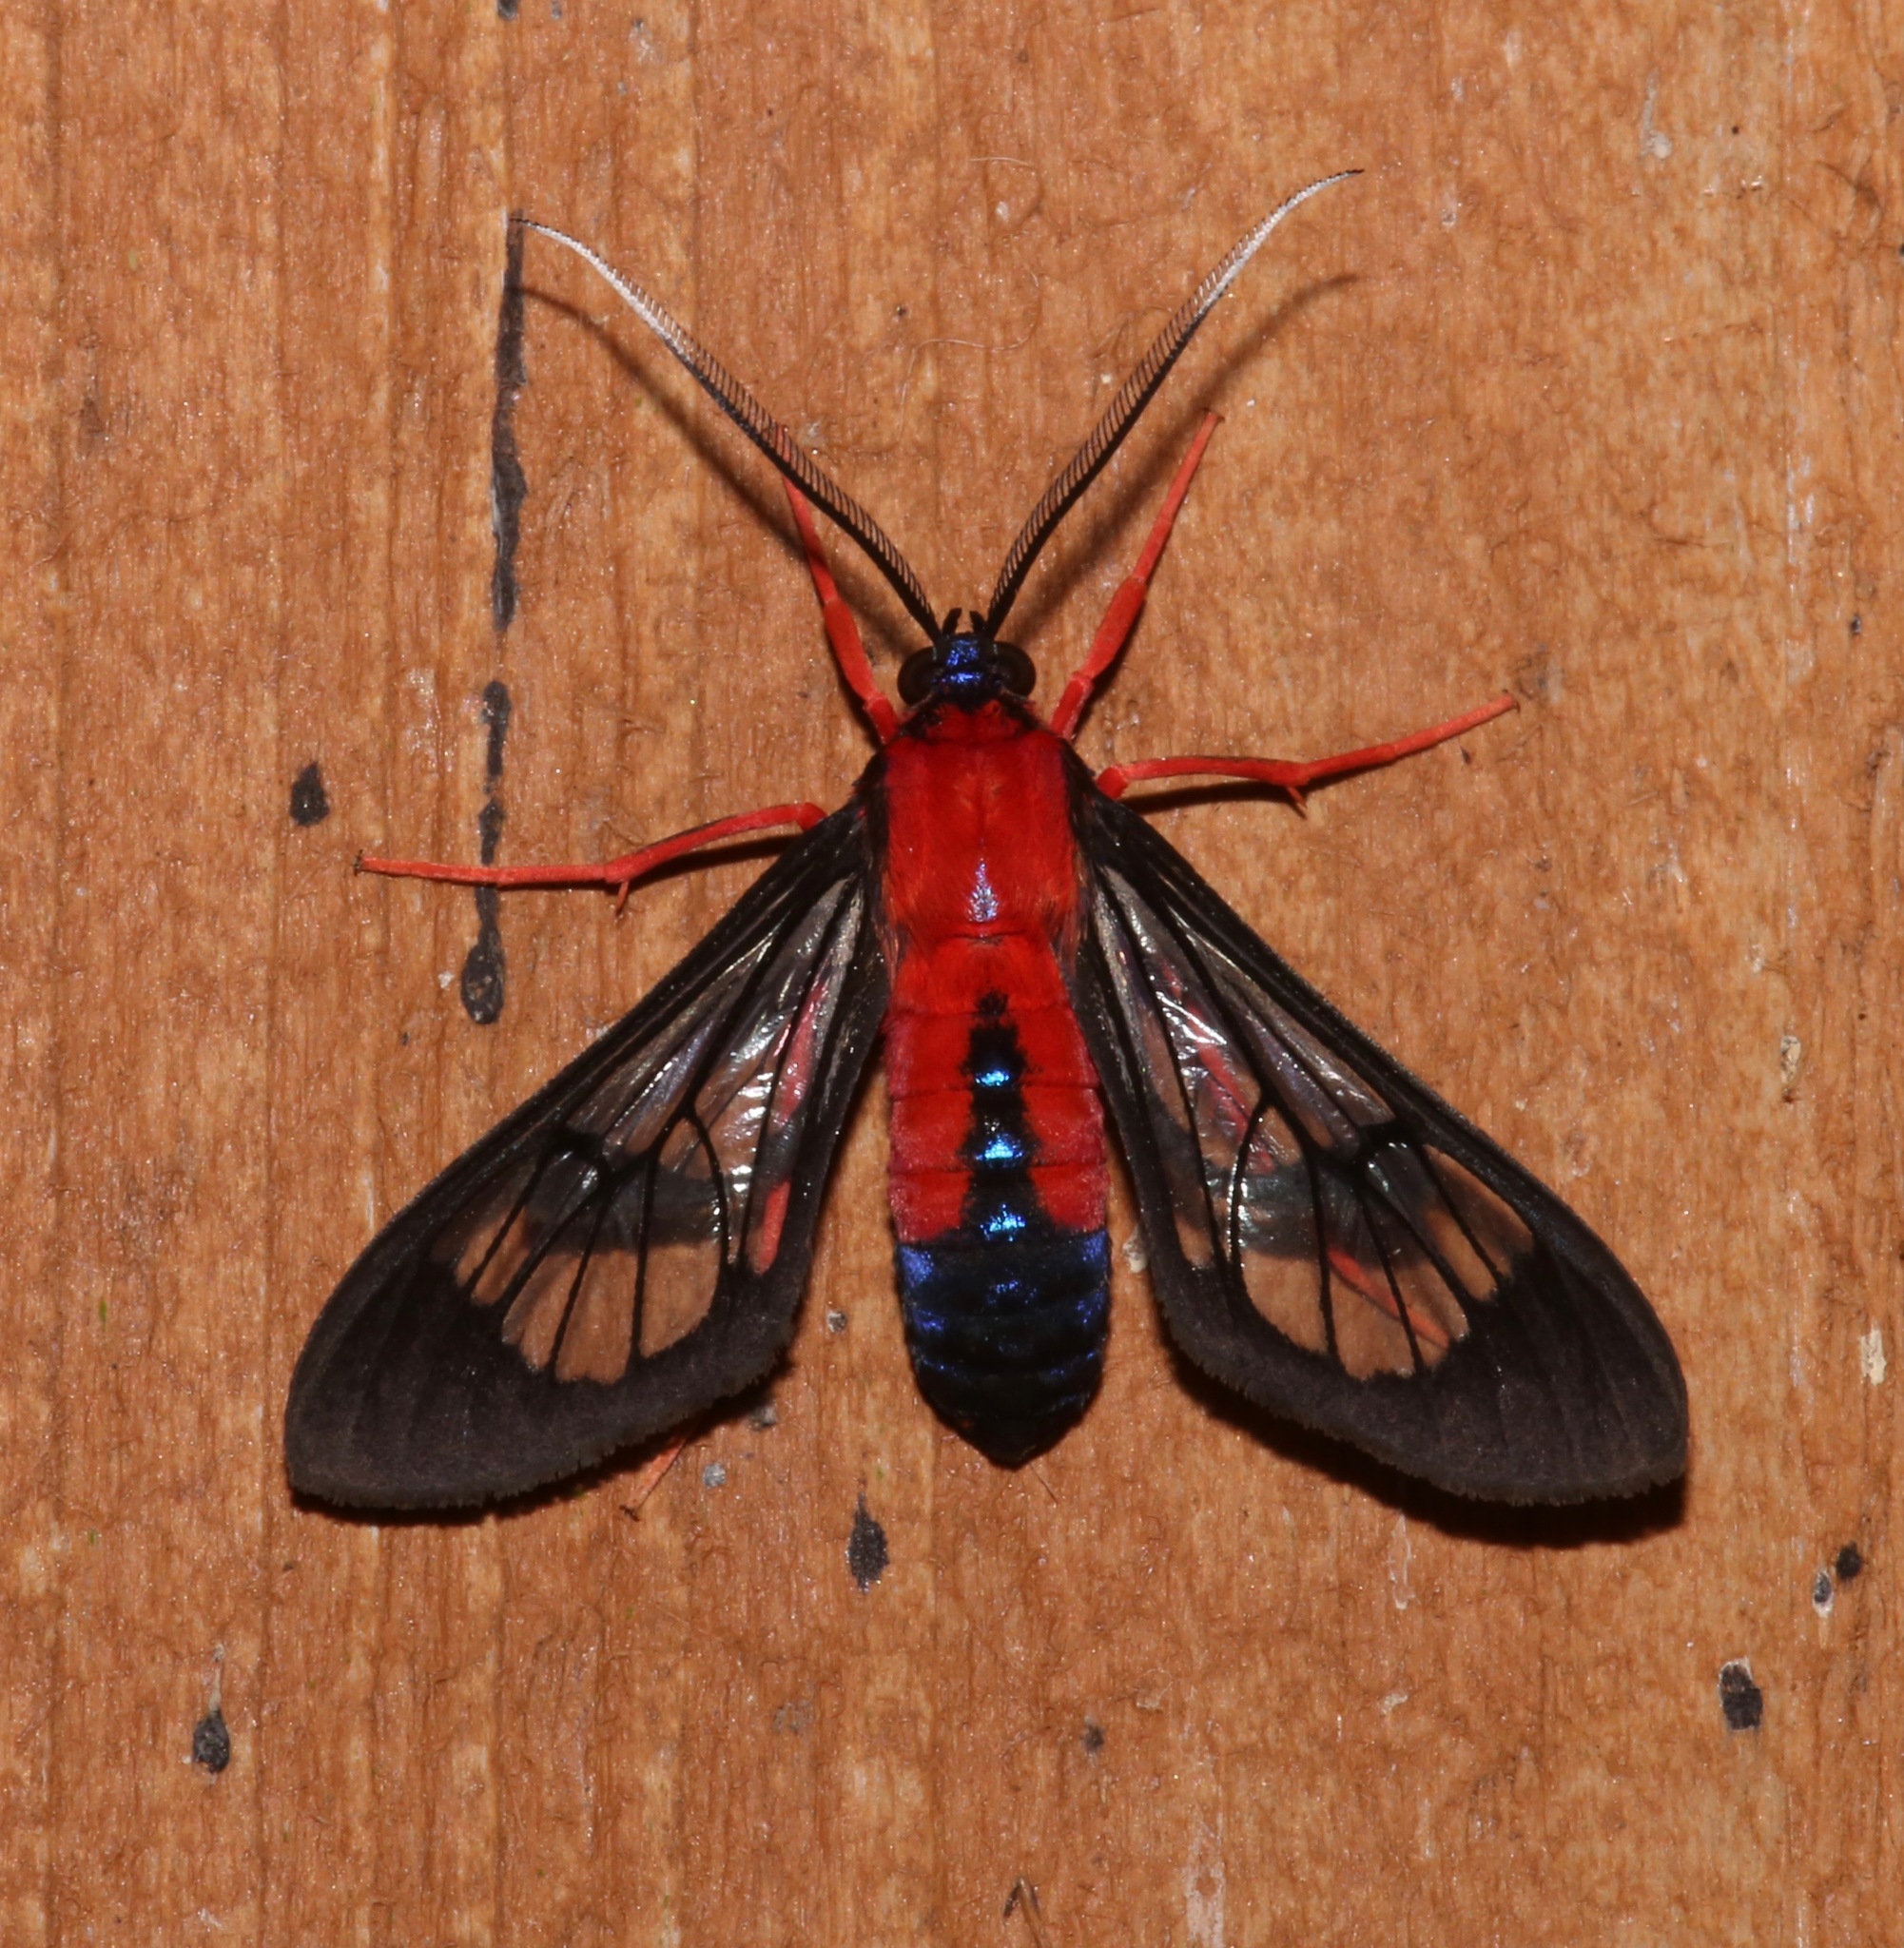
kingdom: Animalia
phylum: Arthropoda
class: Insecta
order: Lepidoptera
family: Erebidae
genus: Cosmosoma
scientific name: Cosmosoma myrodora
